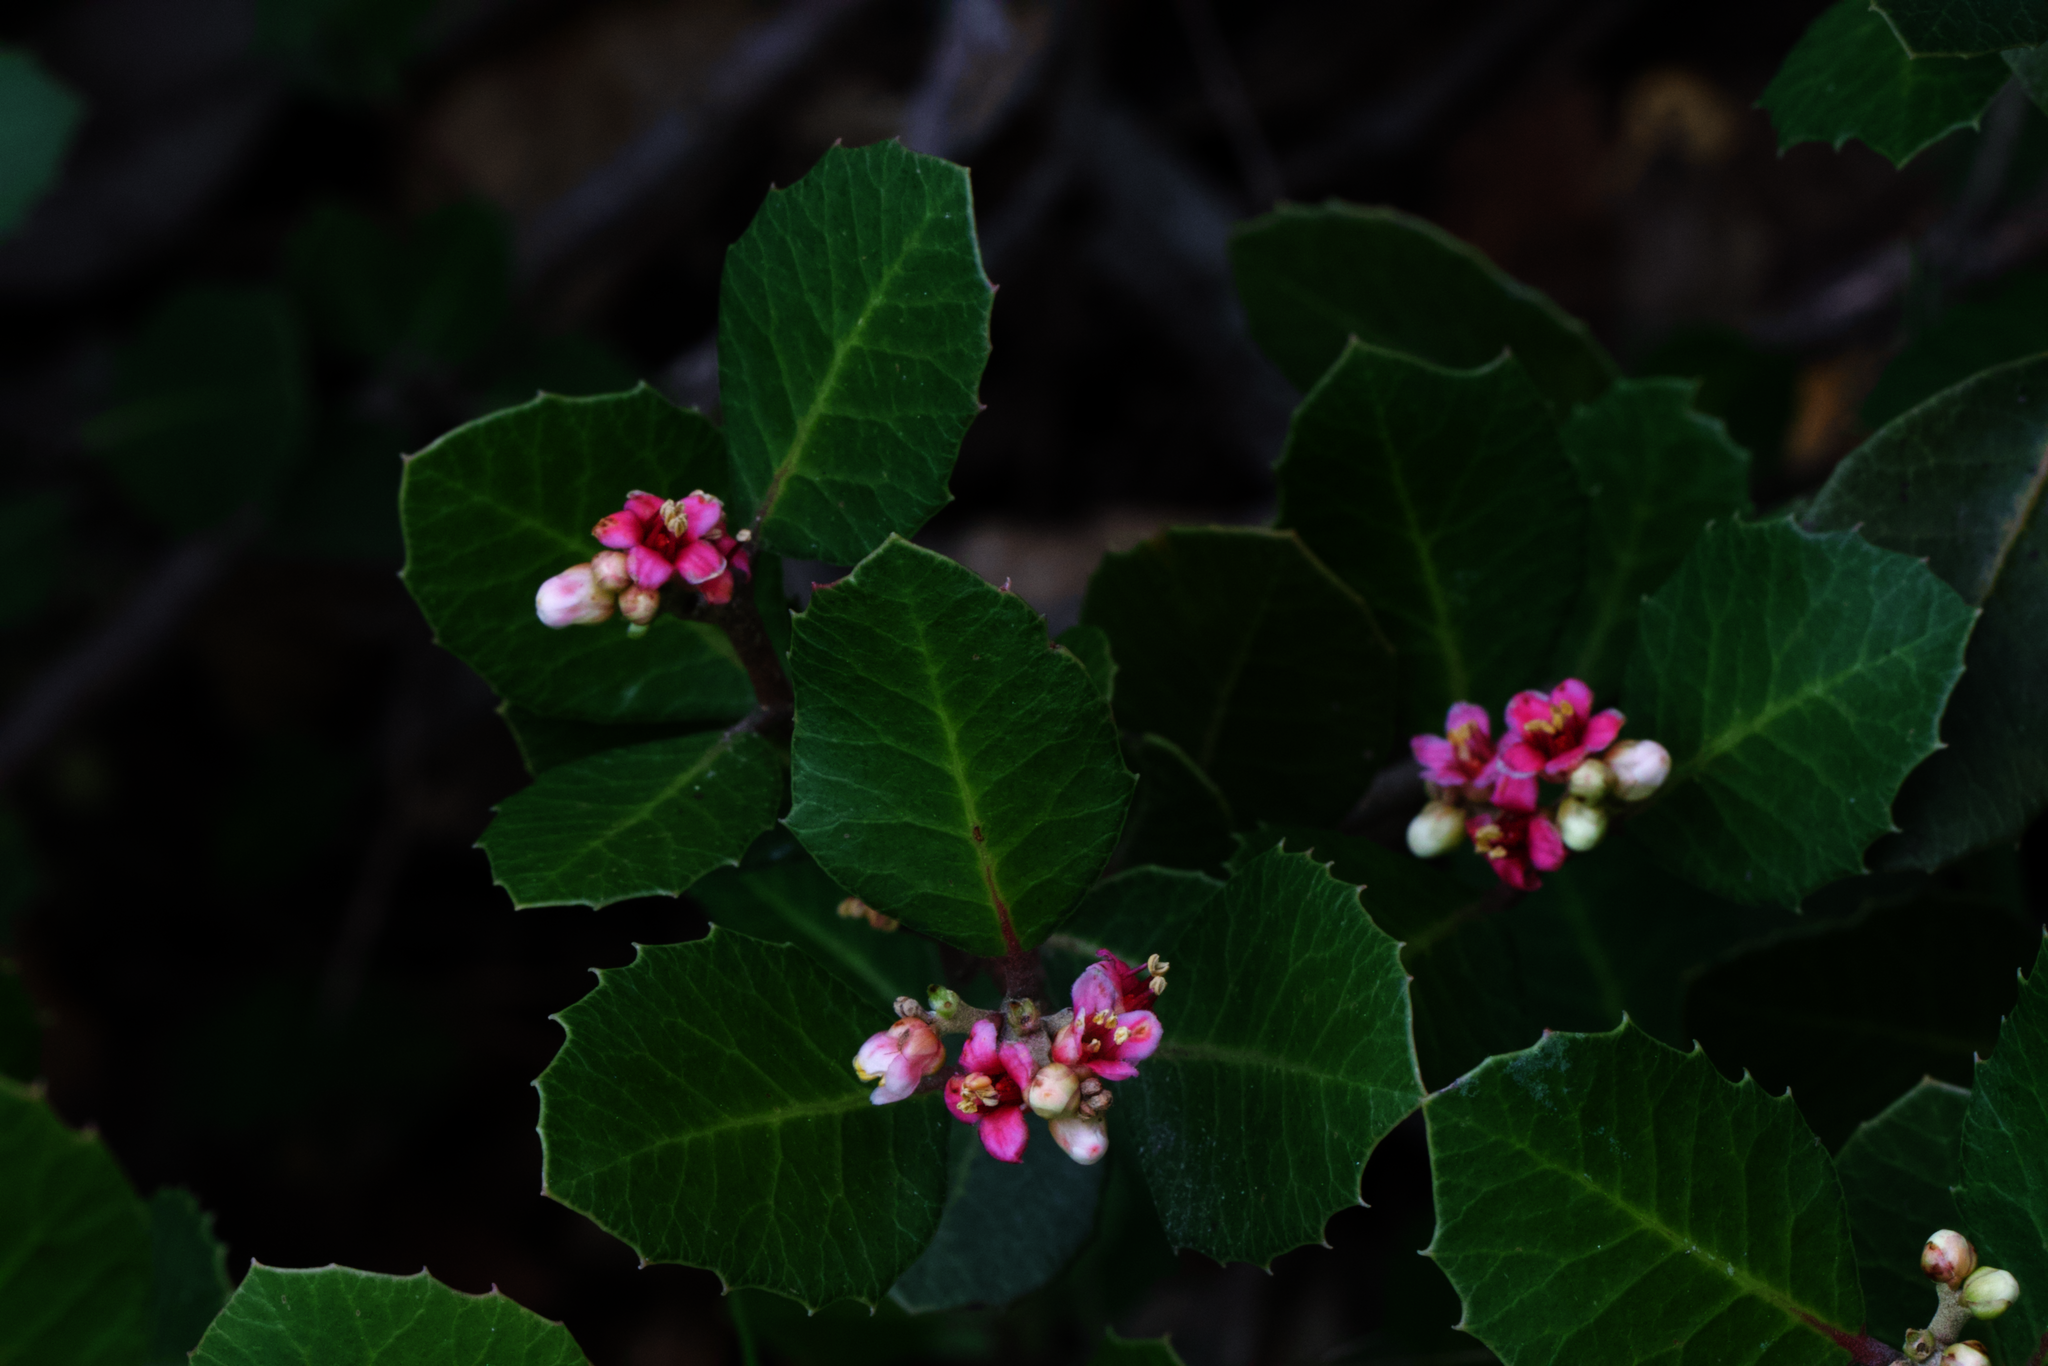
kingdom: Plantae
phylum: Tracheophyta
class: Magnoliopsida
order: Sapindales
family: Anacardiaceae
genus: Rhus
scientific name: Rhus integrifolia
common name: Lemonade sumac
